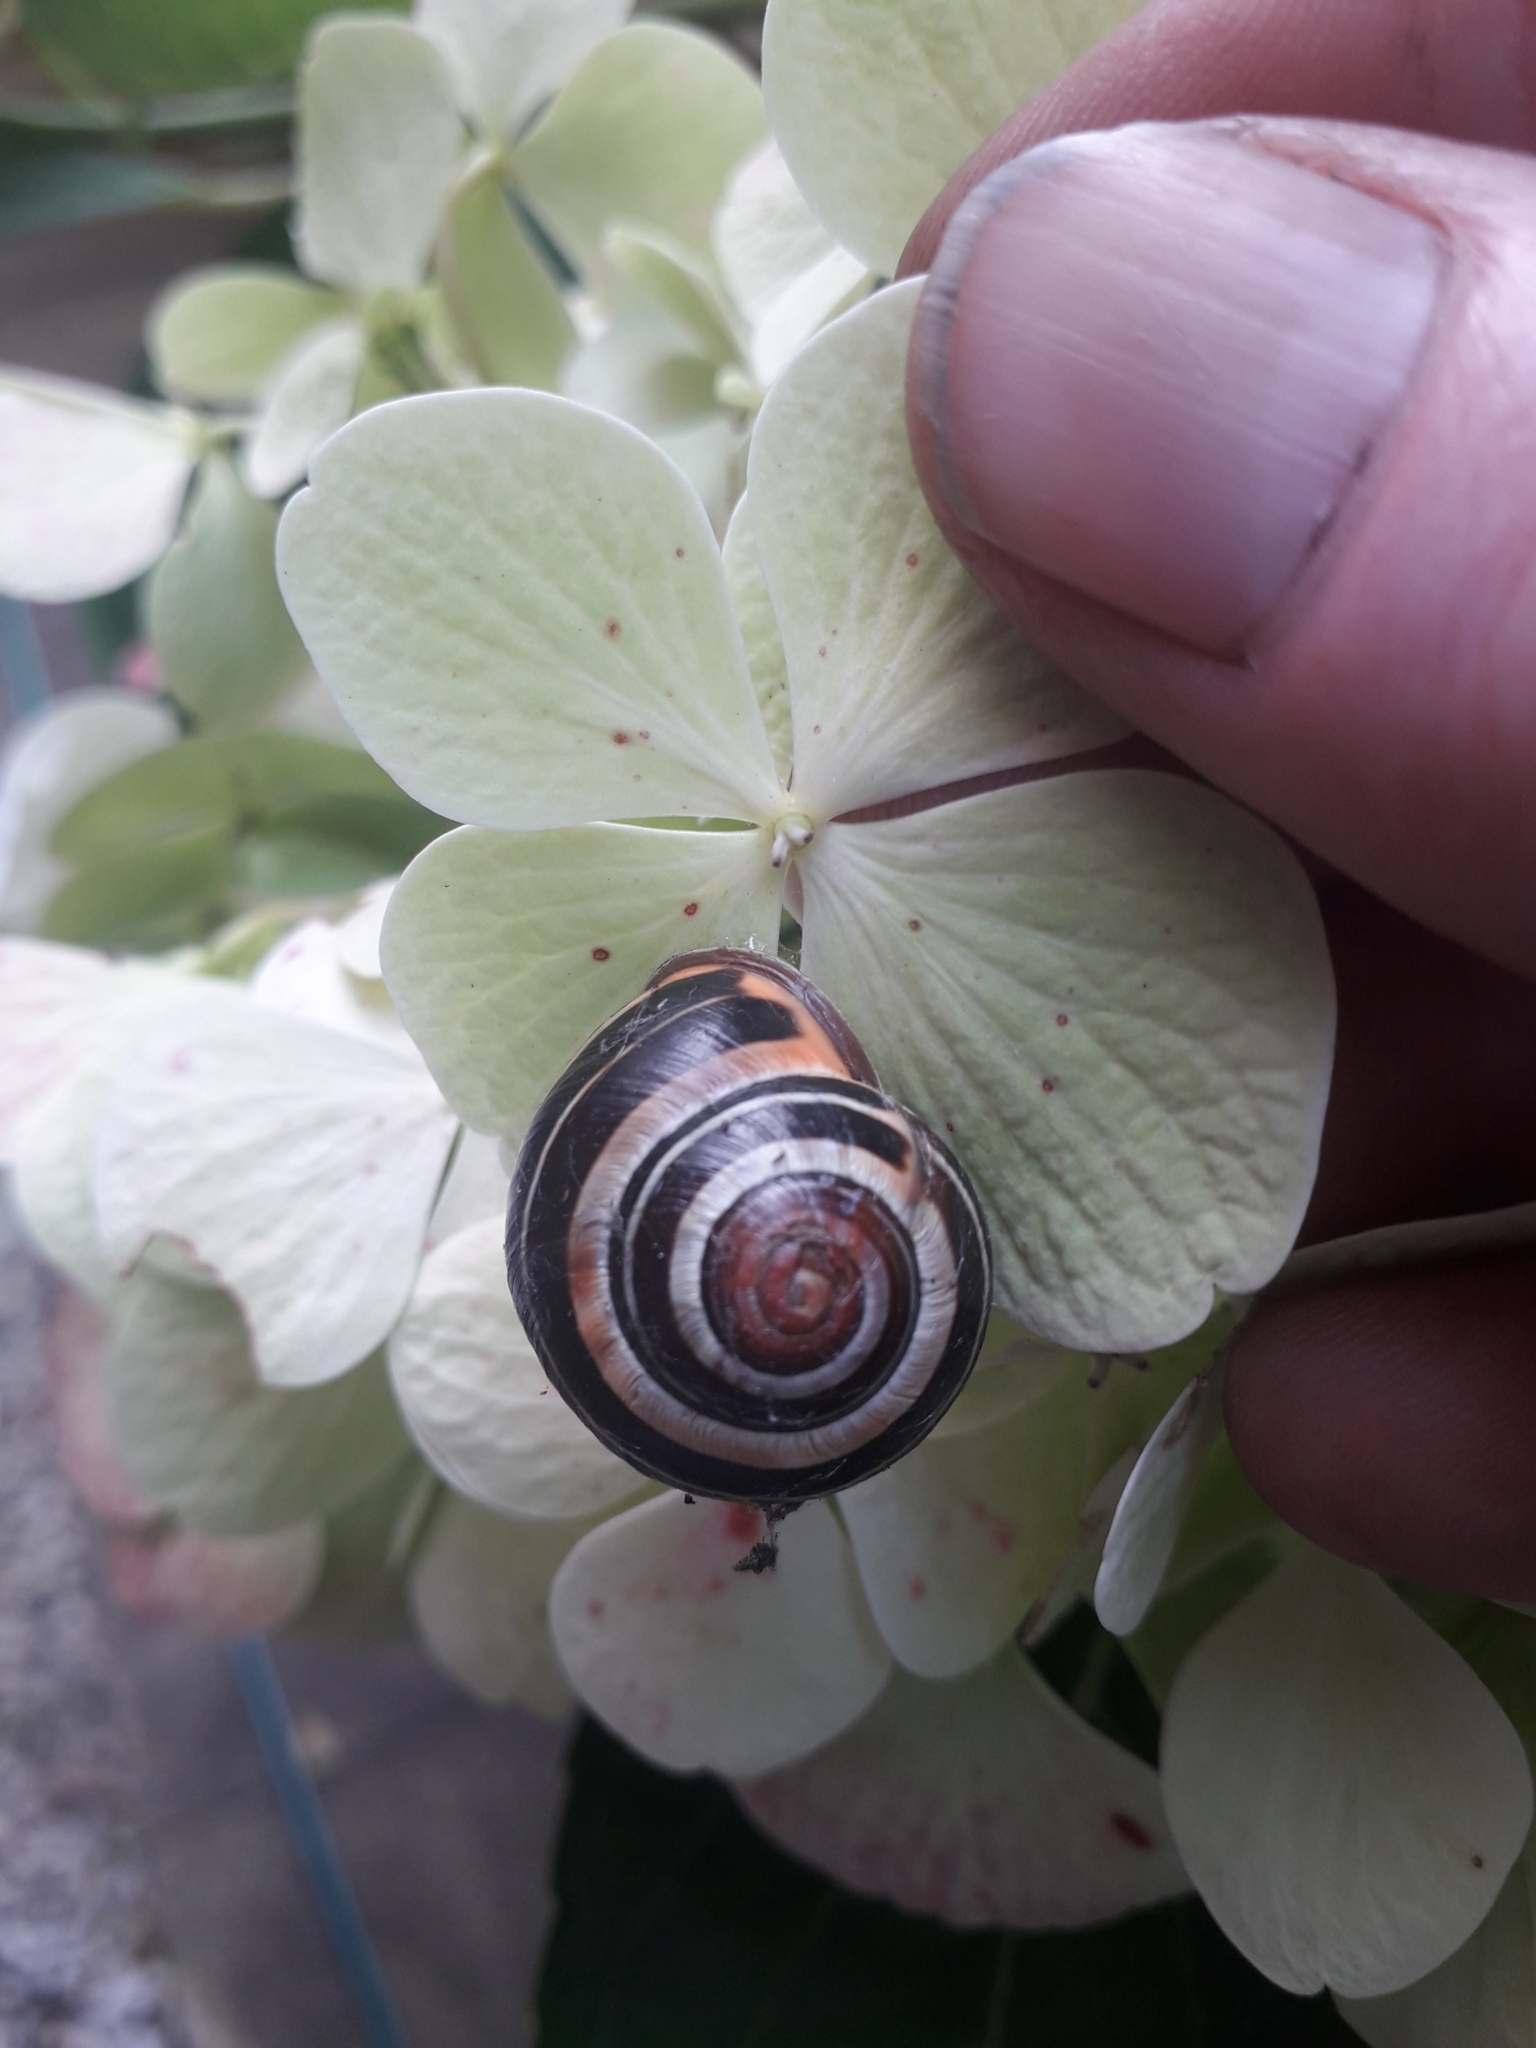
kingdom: Animalia
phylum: Mollusca
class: Gastropoda
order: Stylommatophora
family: Helicidae
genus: Cepaea
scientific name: Cepaea nemoralis
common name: Grovesnail
